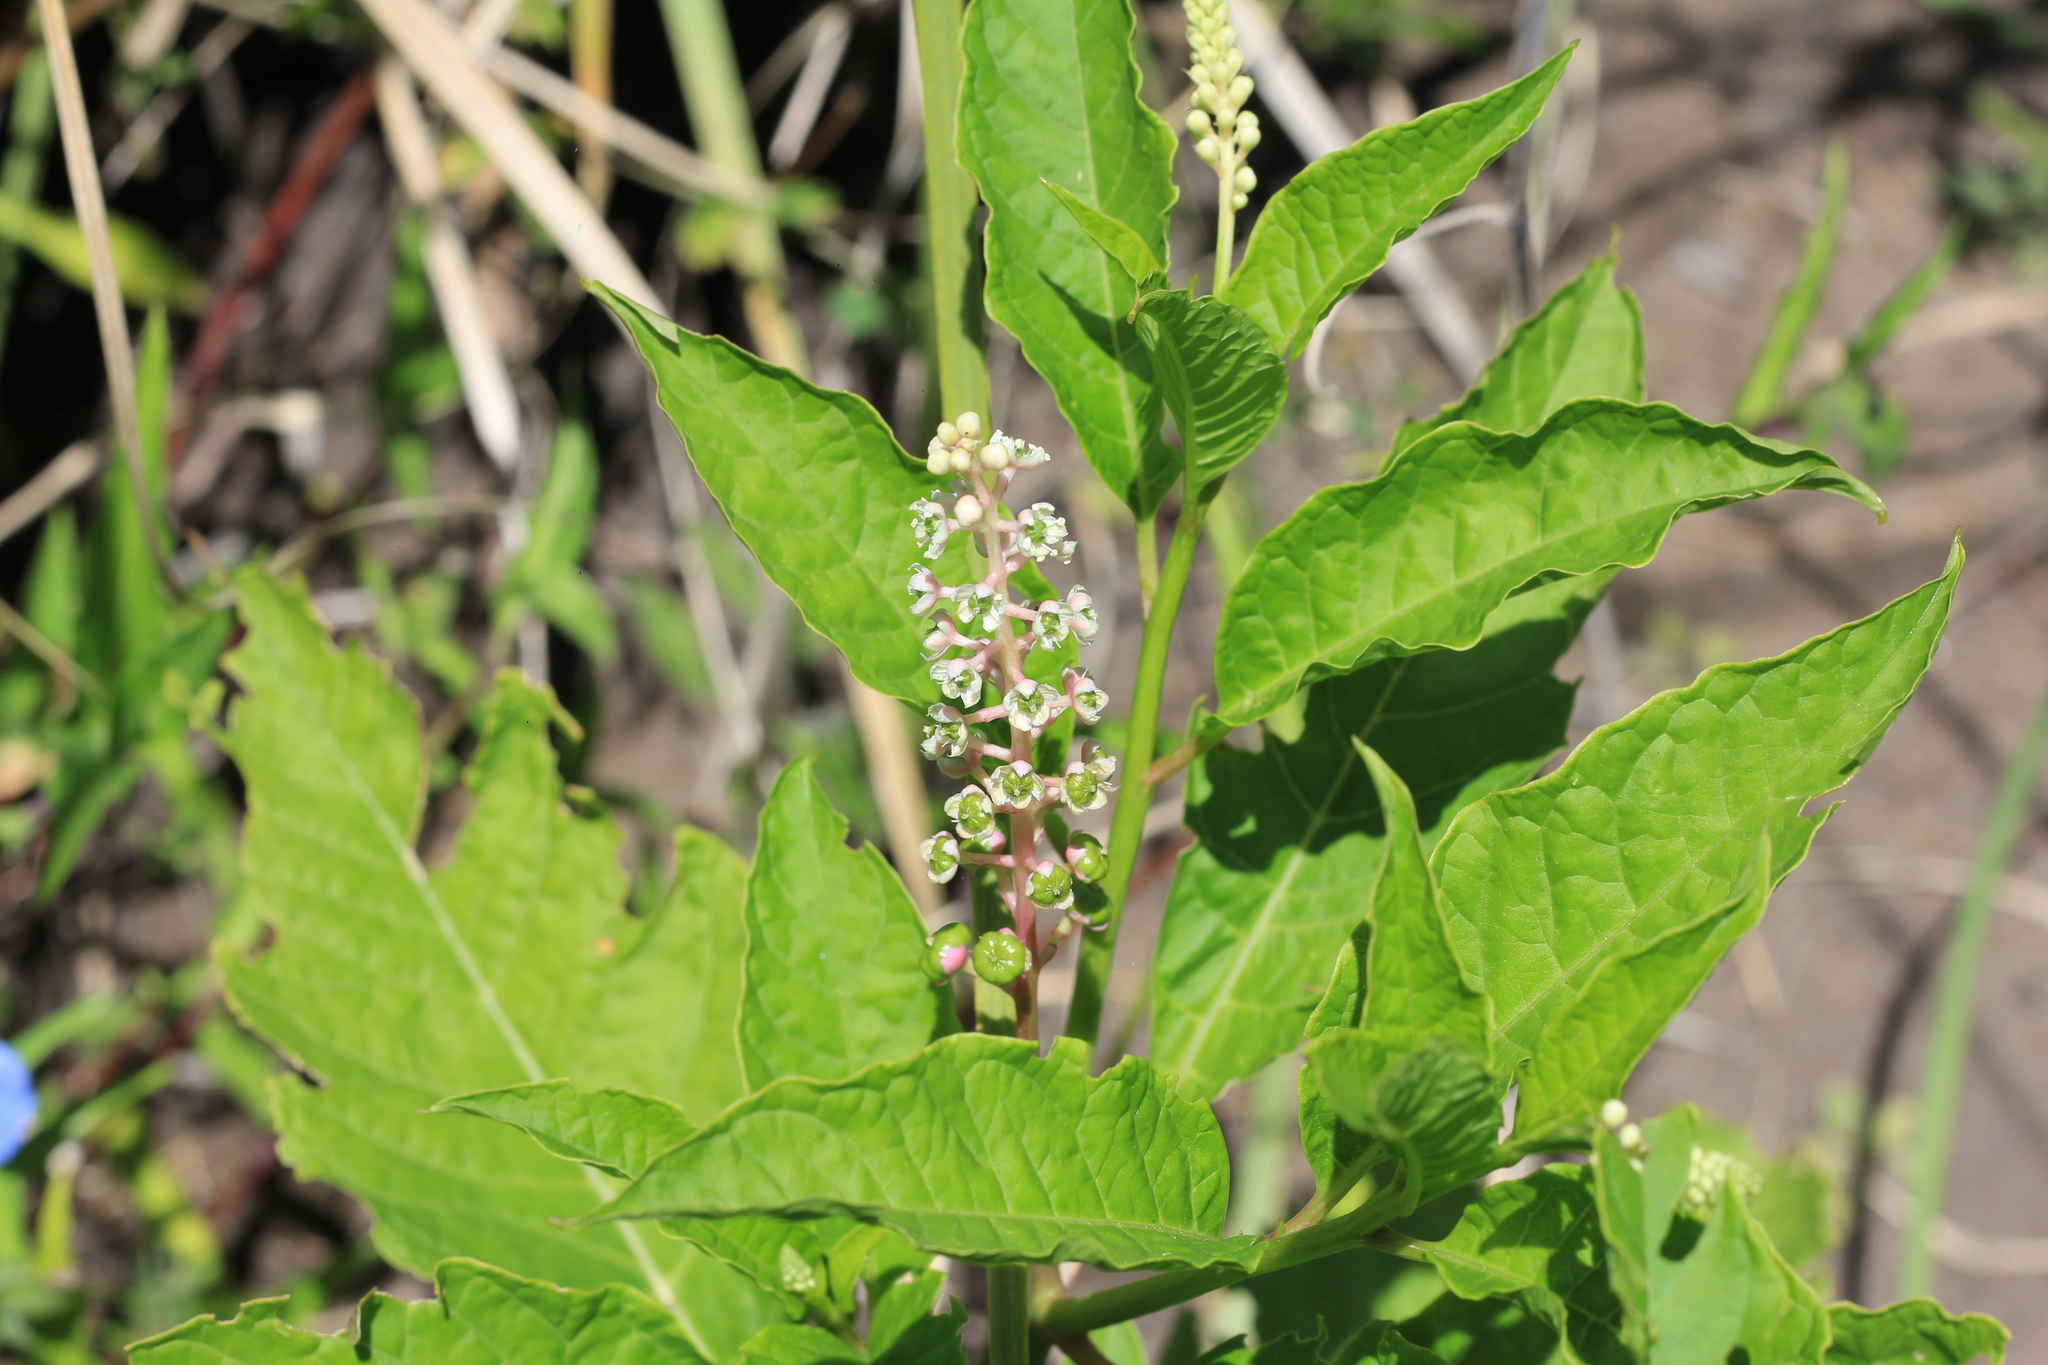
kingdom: Plantae
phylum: Tracheophyta
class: Magnoliopsida
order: Caryophyllales
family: Phytolaccaceae
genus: Phytolacca
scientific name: Phytolacca americana
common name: American pokeweed
